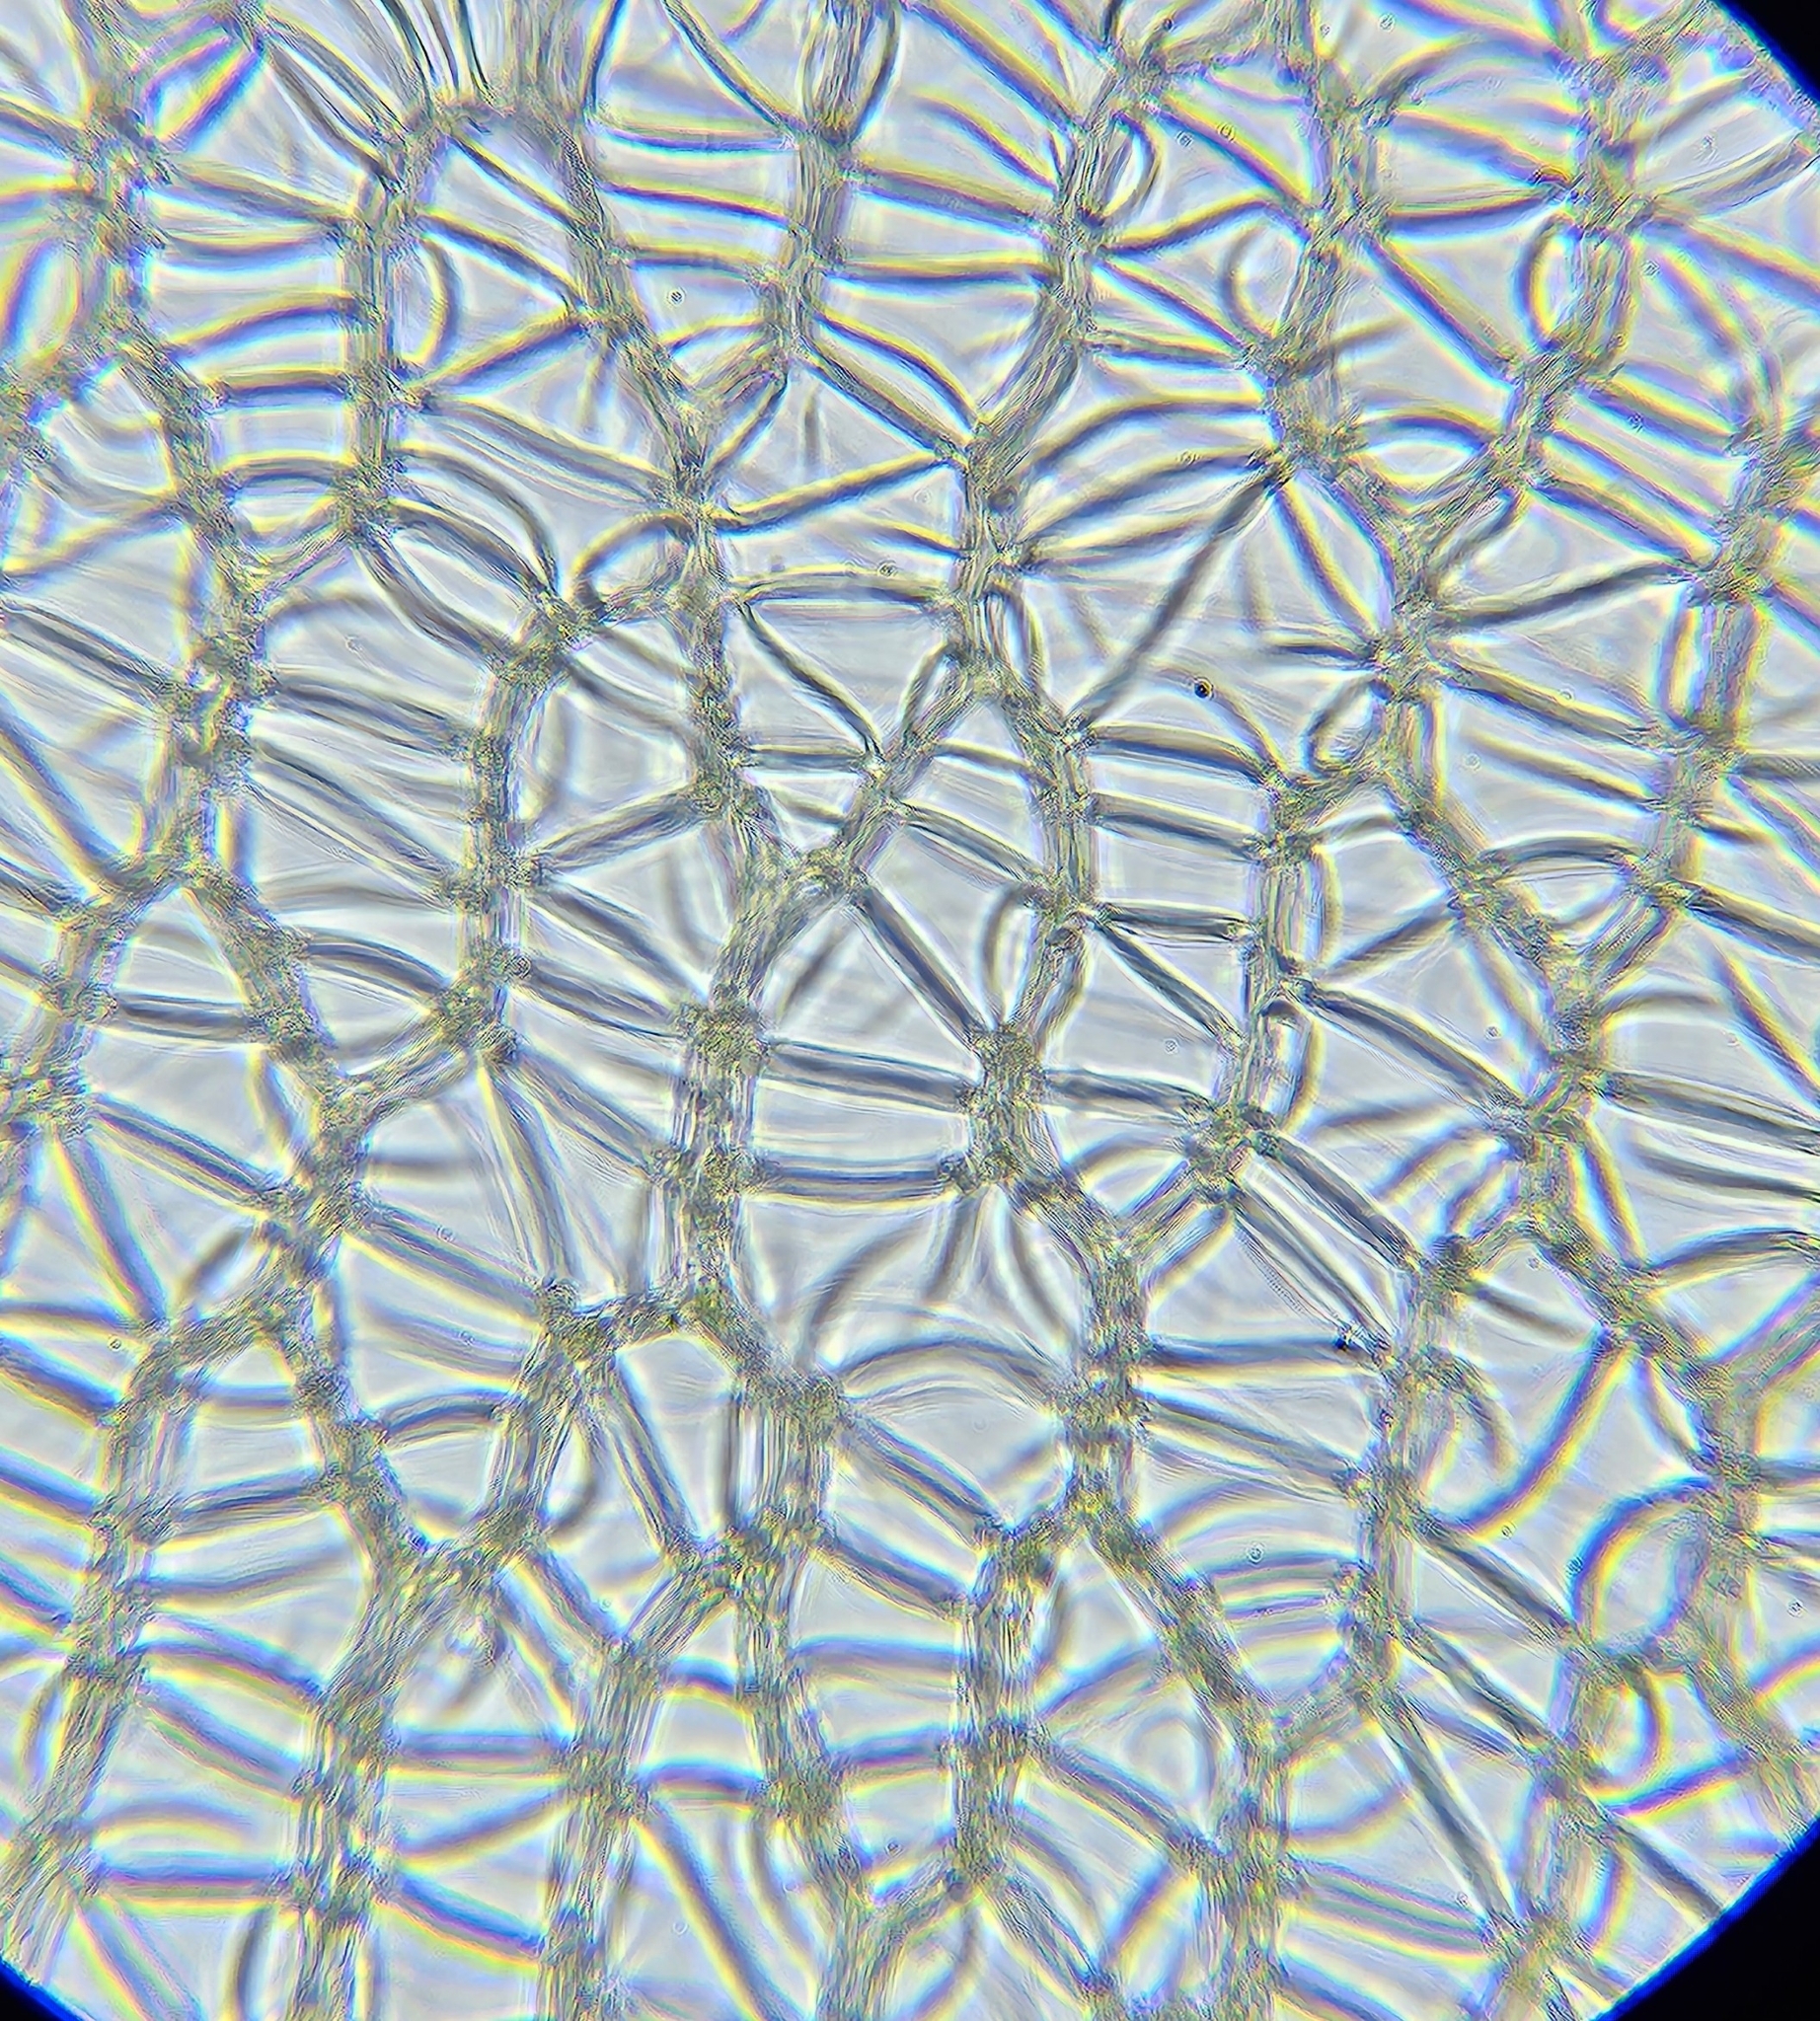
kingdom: Plantae
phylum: Bryophyta
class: Sphagnopsida
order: Sphagnales
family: Sphagnaceae
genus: Sphagnum
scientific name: Sphagnum palustre
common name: Blunt-leaved bog-moss
